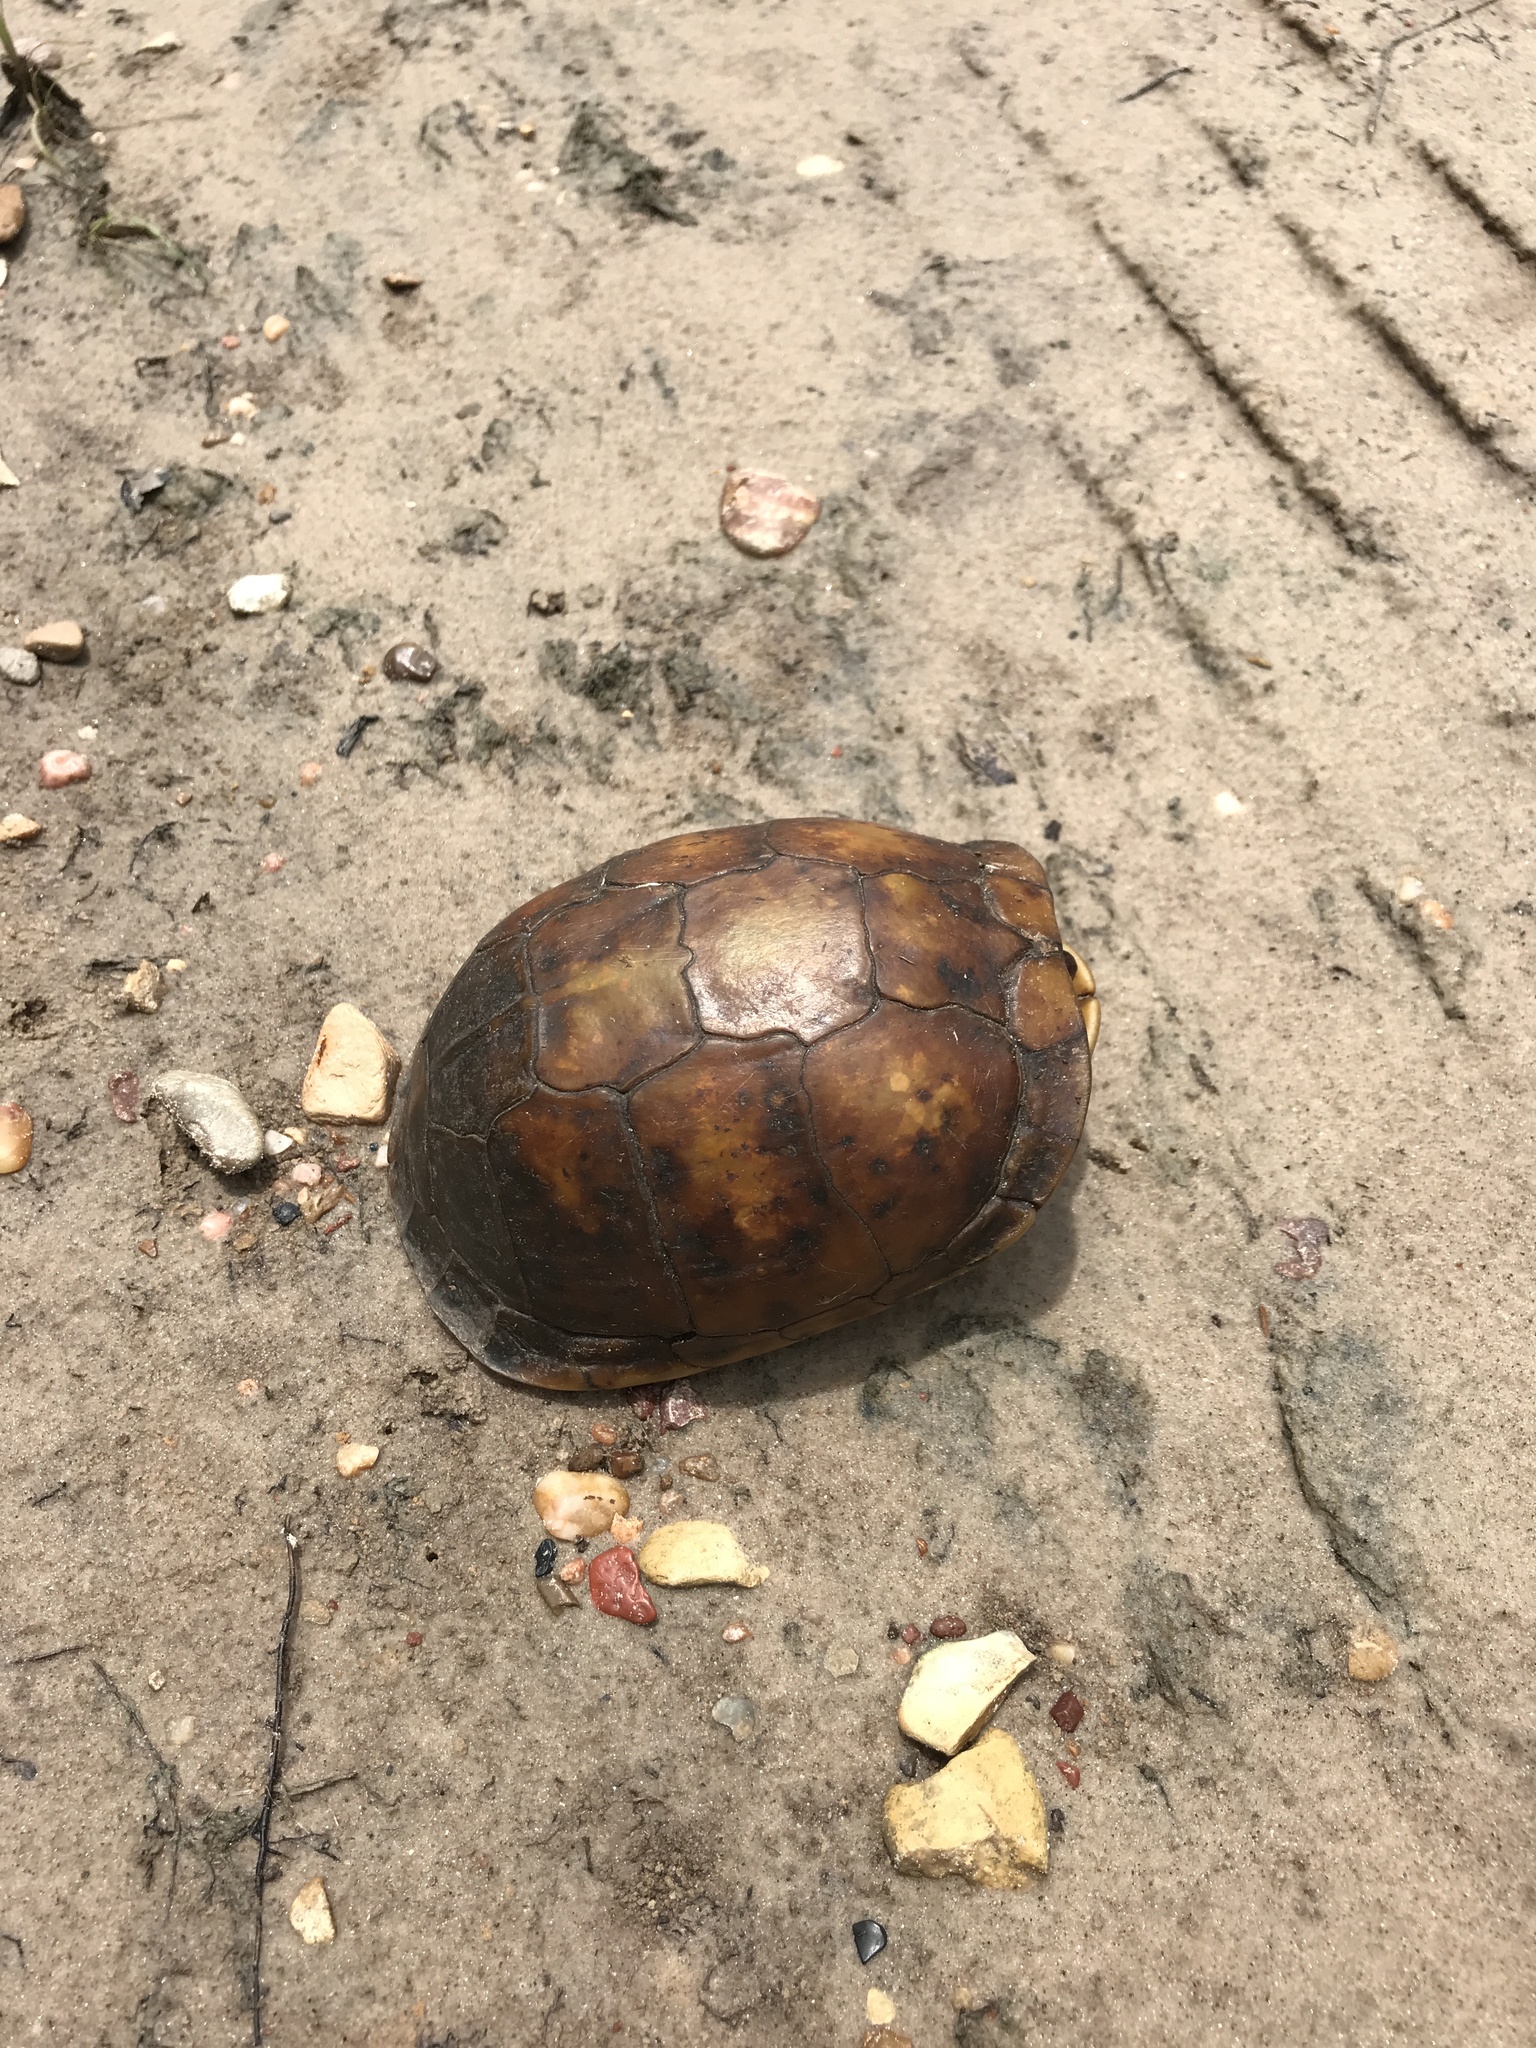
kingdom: Animalia
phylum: Chordata
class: Testudines
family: Emydidae
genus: Terrapene
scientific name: Terrapene carolina
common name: Common box turtle
